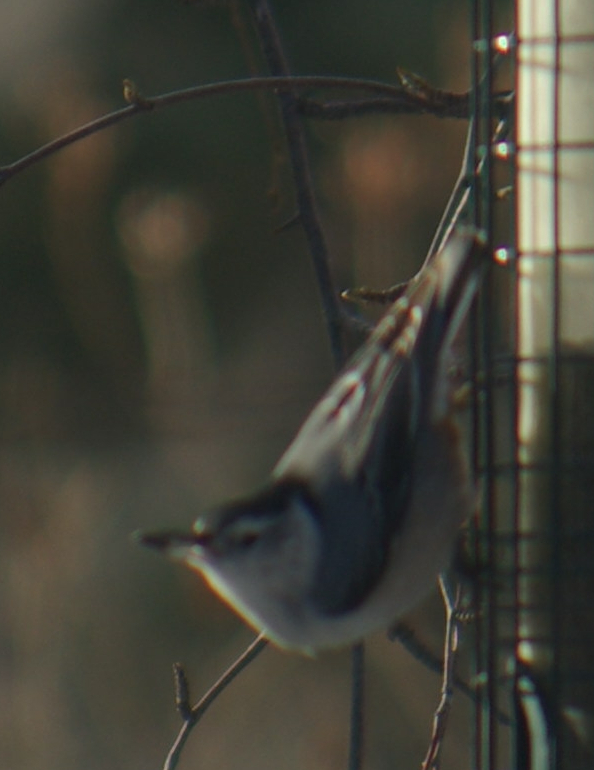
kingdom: Animalia
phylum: Chordata
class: Aves
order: Passeriformes
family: Sittidae
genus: Sitta
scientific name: Sitta carolinensis
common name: White-breasted nuthatch
